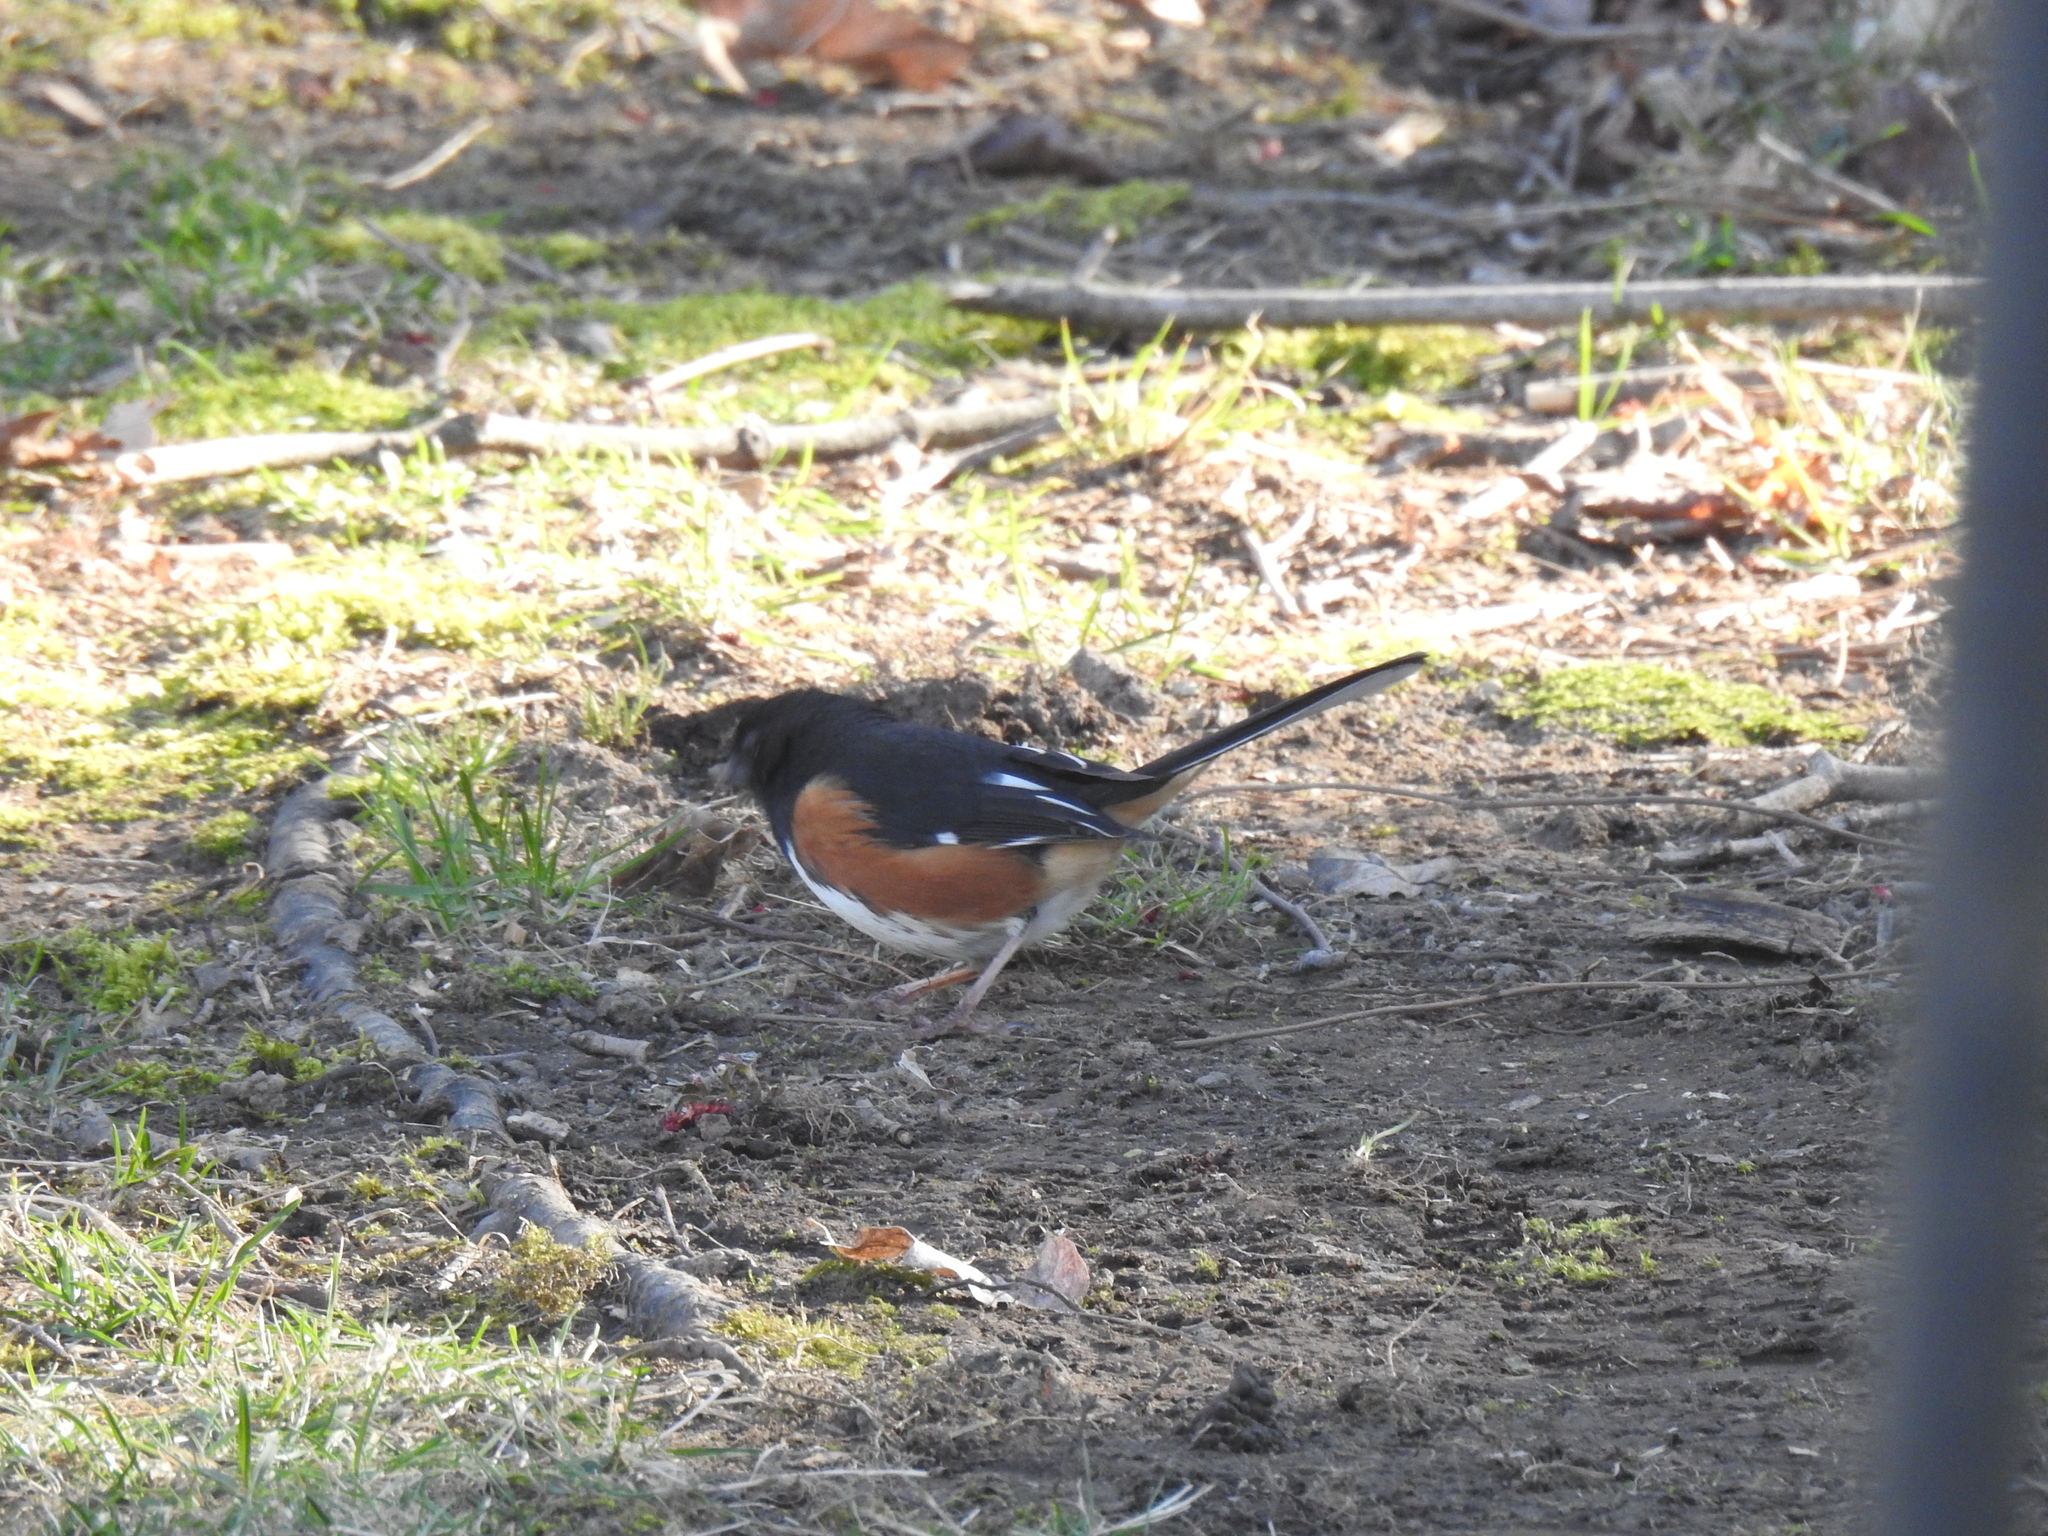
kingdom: Animalia
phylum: Chordata
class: Aves
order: Passeriformes
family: Passerellidae
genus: Pipilo
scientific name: Pipilo erythrophthalmus
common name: Eastern towhee
